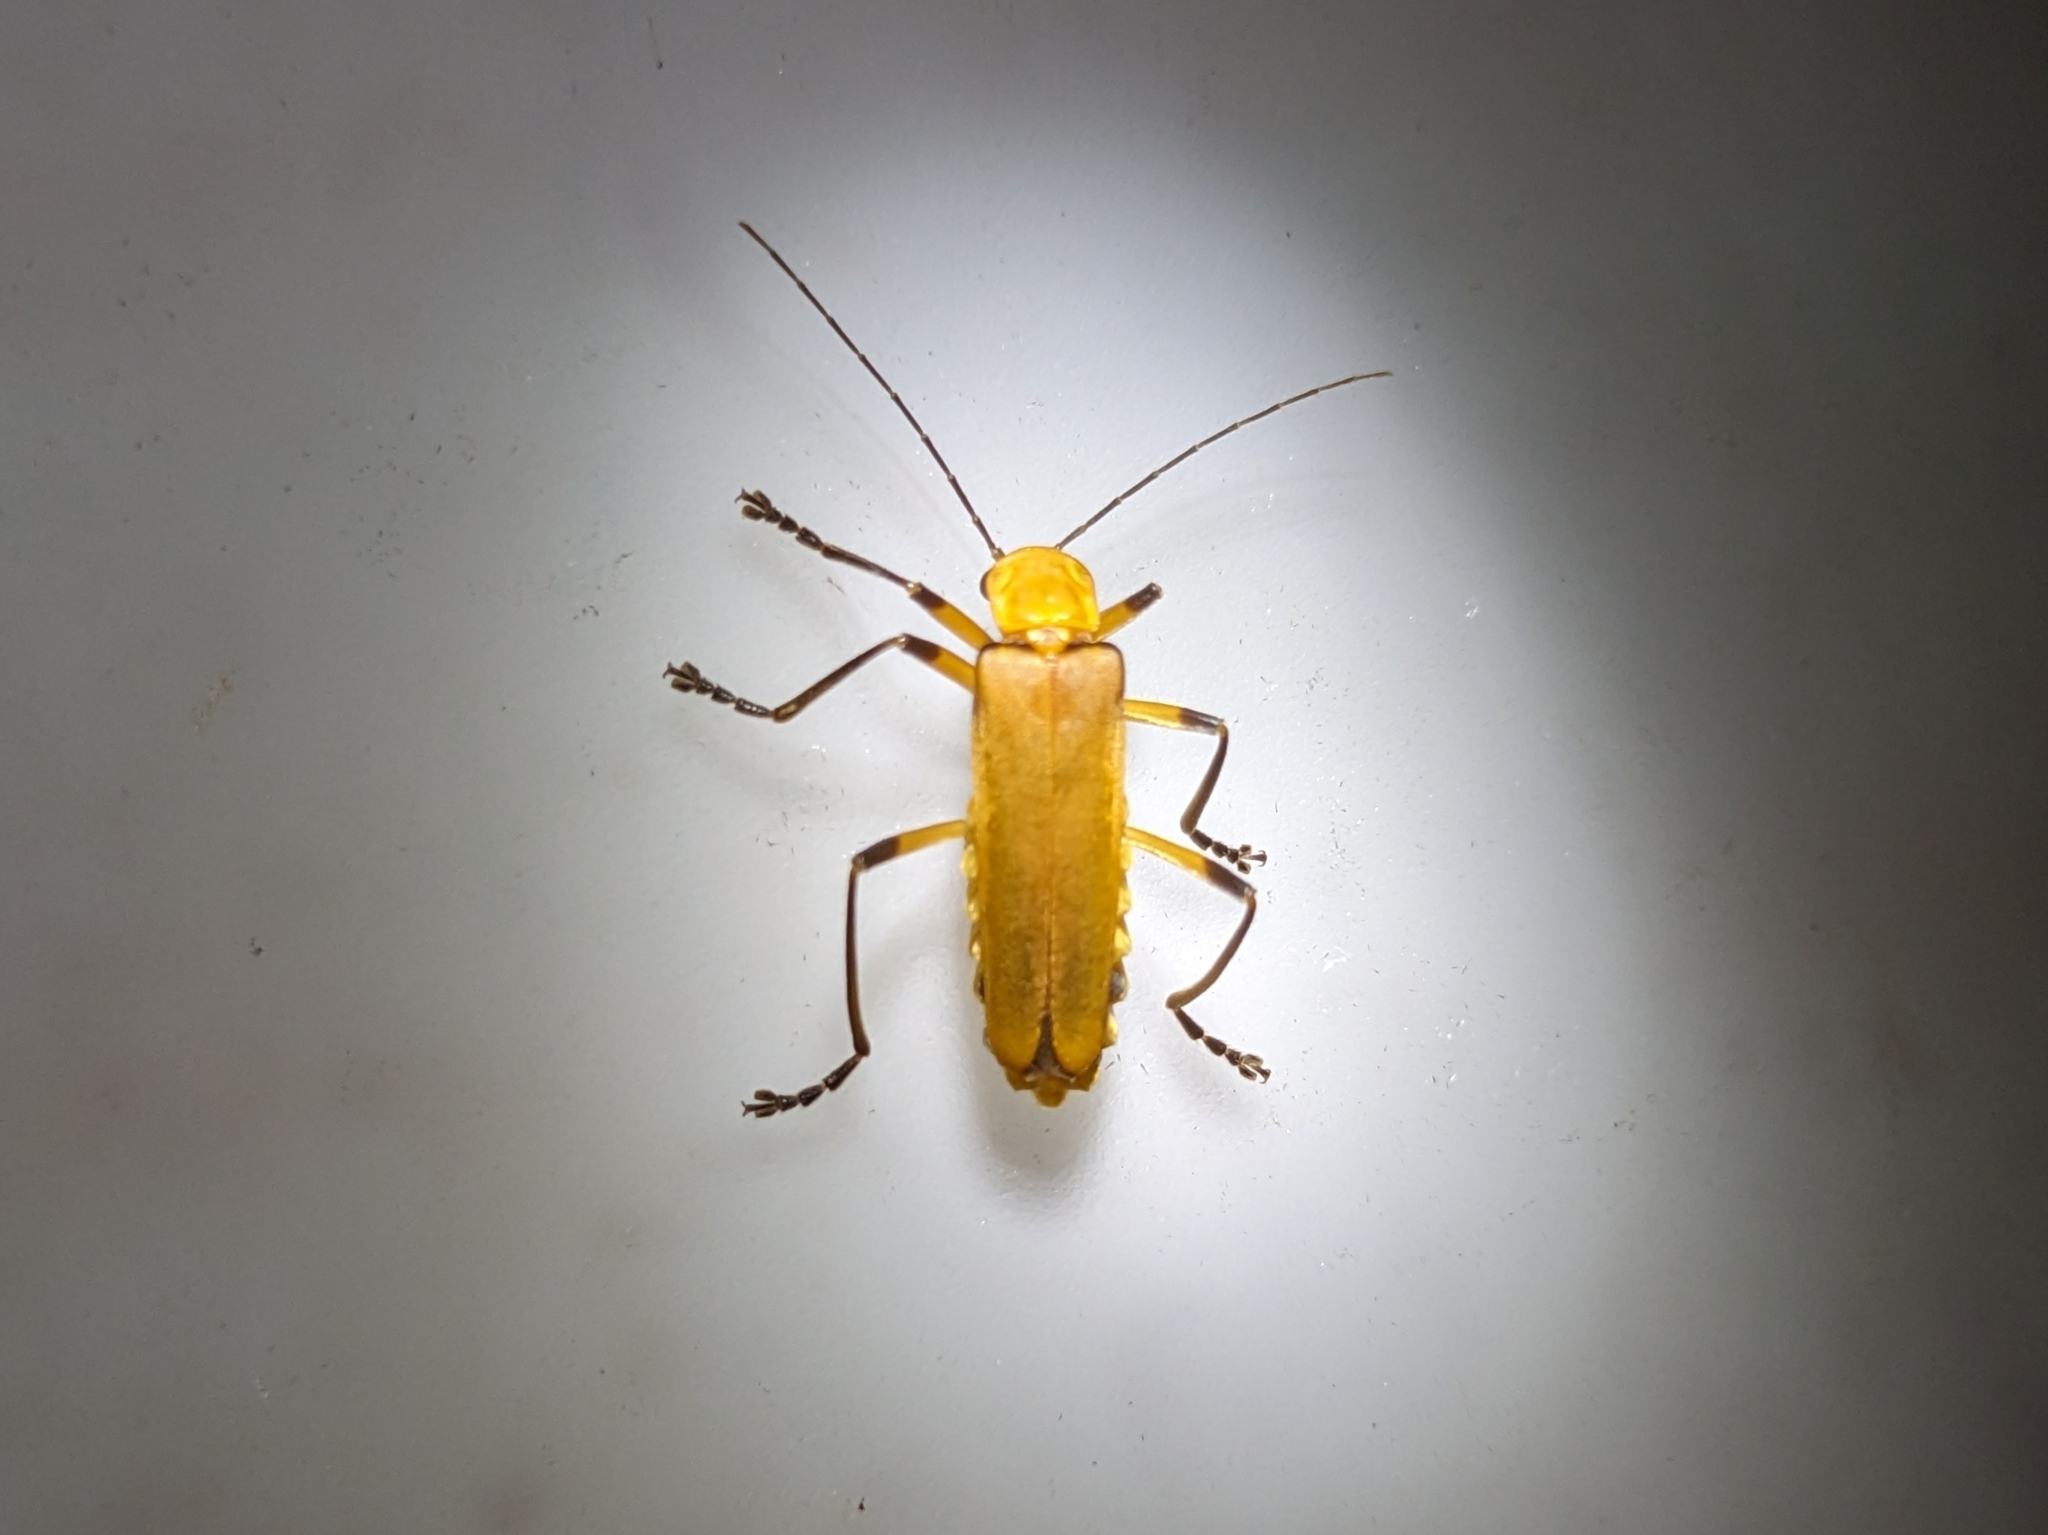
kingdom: Animalia
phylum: Arthropoda
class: Insecta
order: Coleoptera
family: Cantharidae
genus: Chauliognathus
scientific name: Chauliognathus
